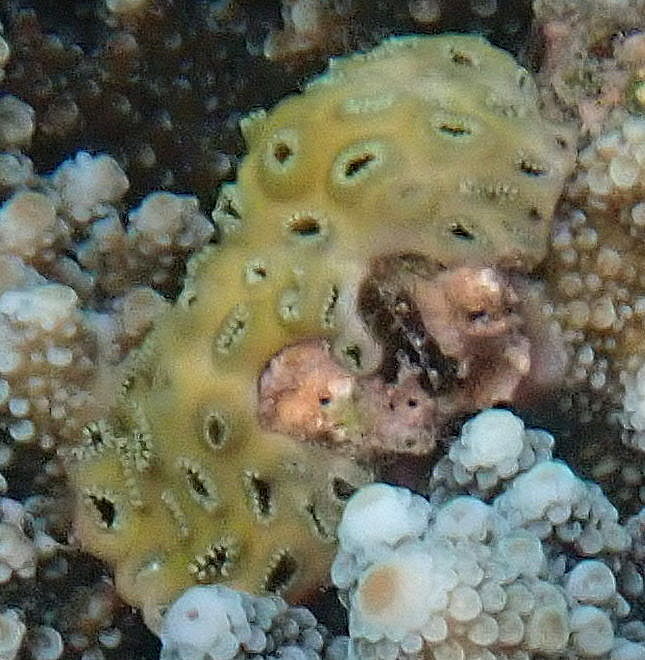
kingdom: Animalia
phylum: Cnidaria
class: Anthozoa
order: Zoantharia
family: Sphenopidae
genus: Palythoa
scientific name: Palythoa tuberculosa
